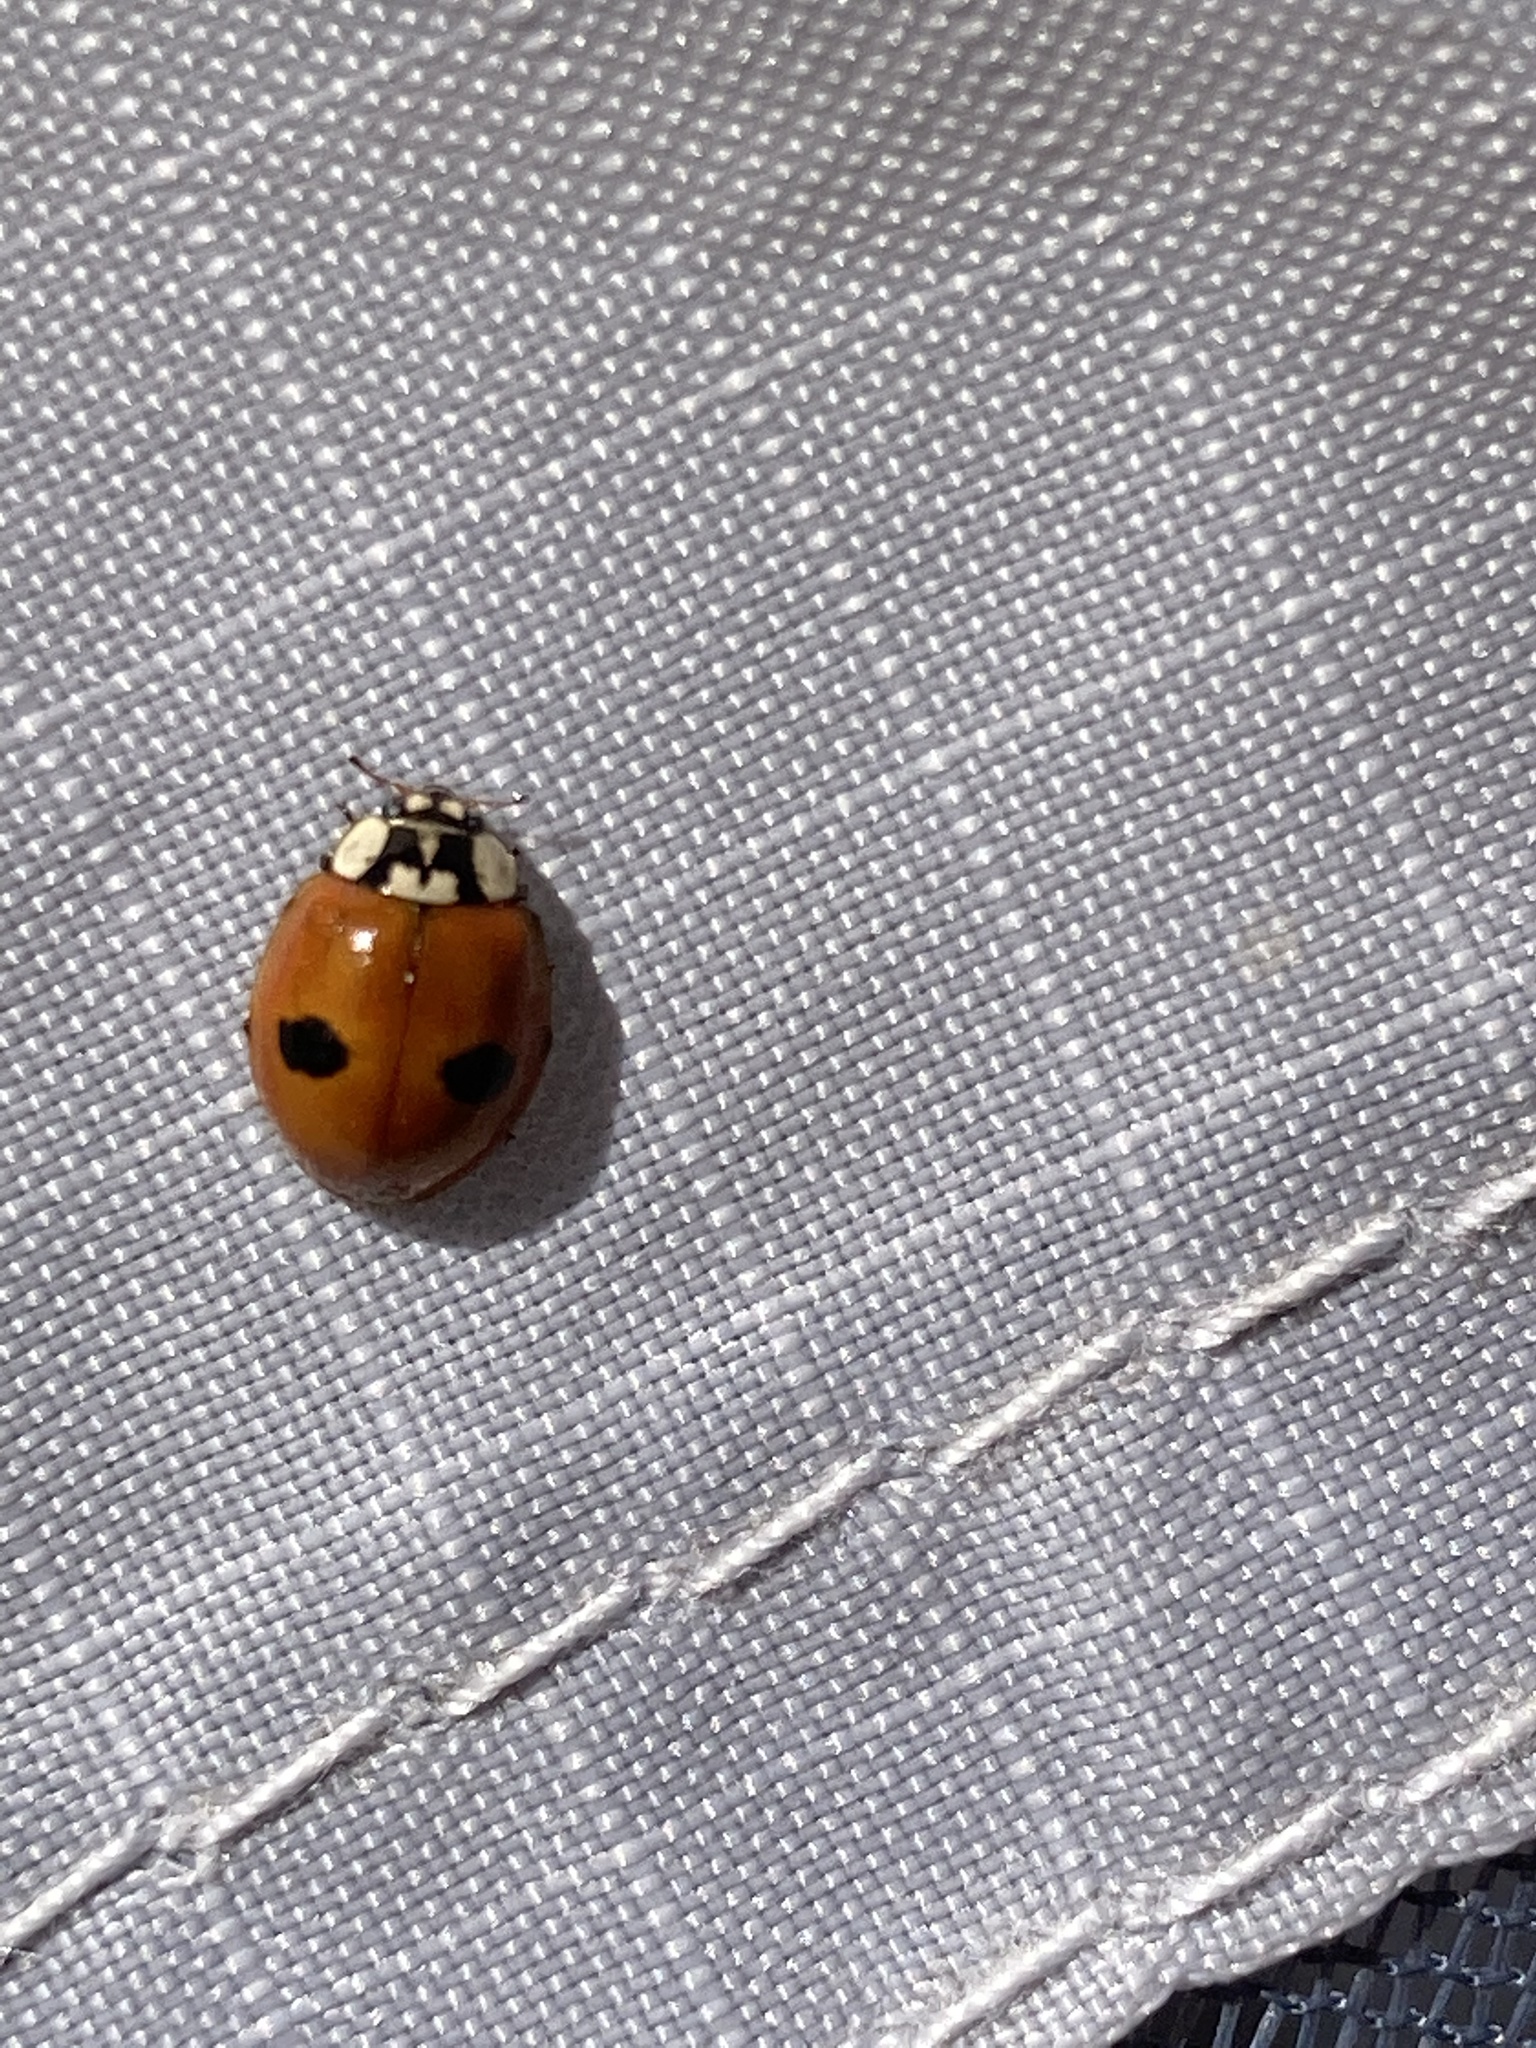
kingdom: Animalia
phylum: Arthropoda
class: Insecta
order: Coleoptera
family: Coccinellidae
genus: Adalia
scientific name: Adalia bipunctata
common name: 2-spot ladybird
